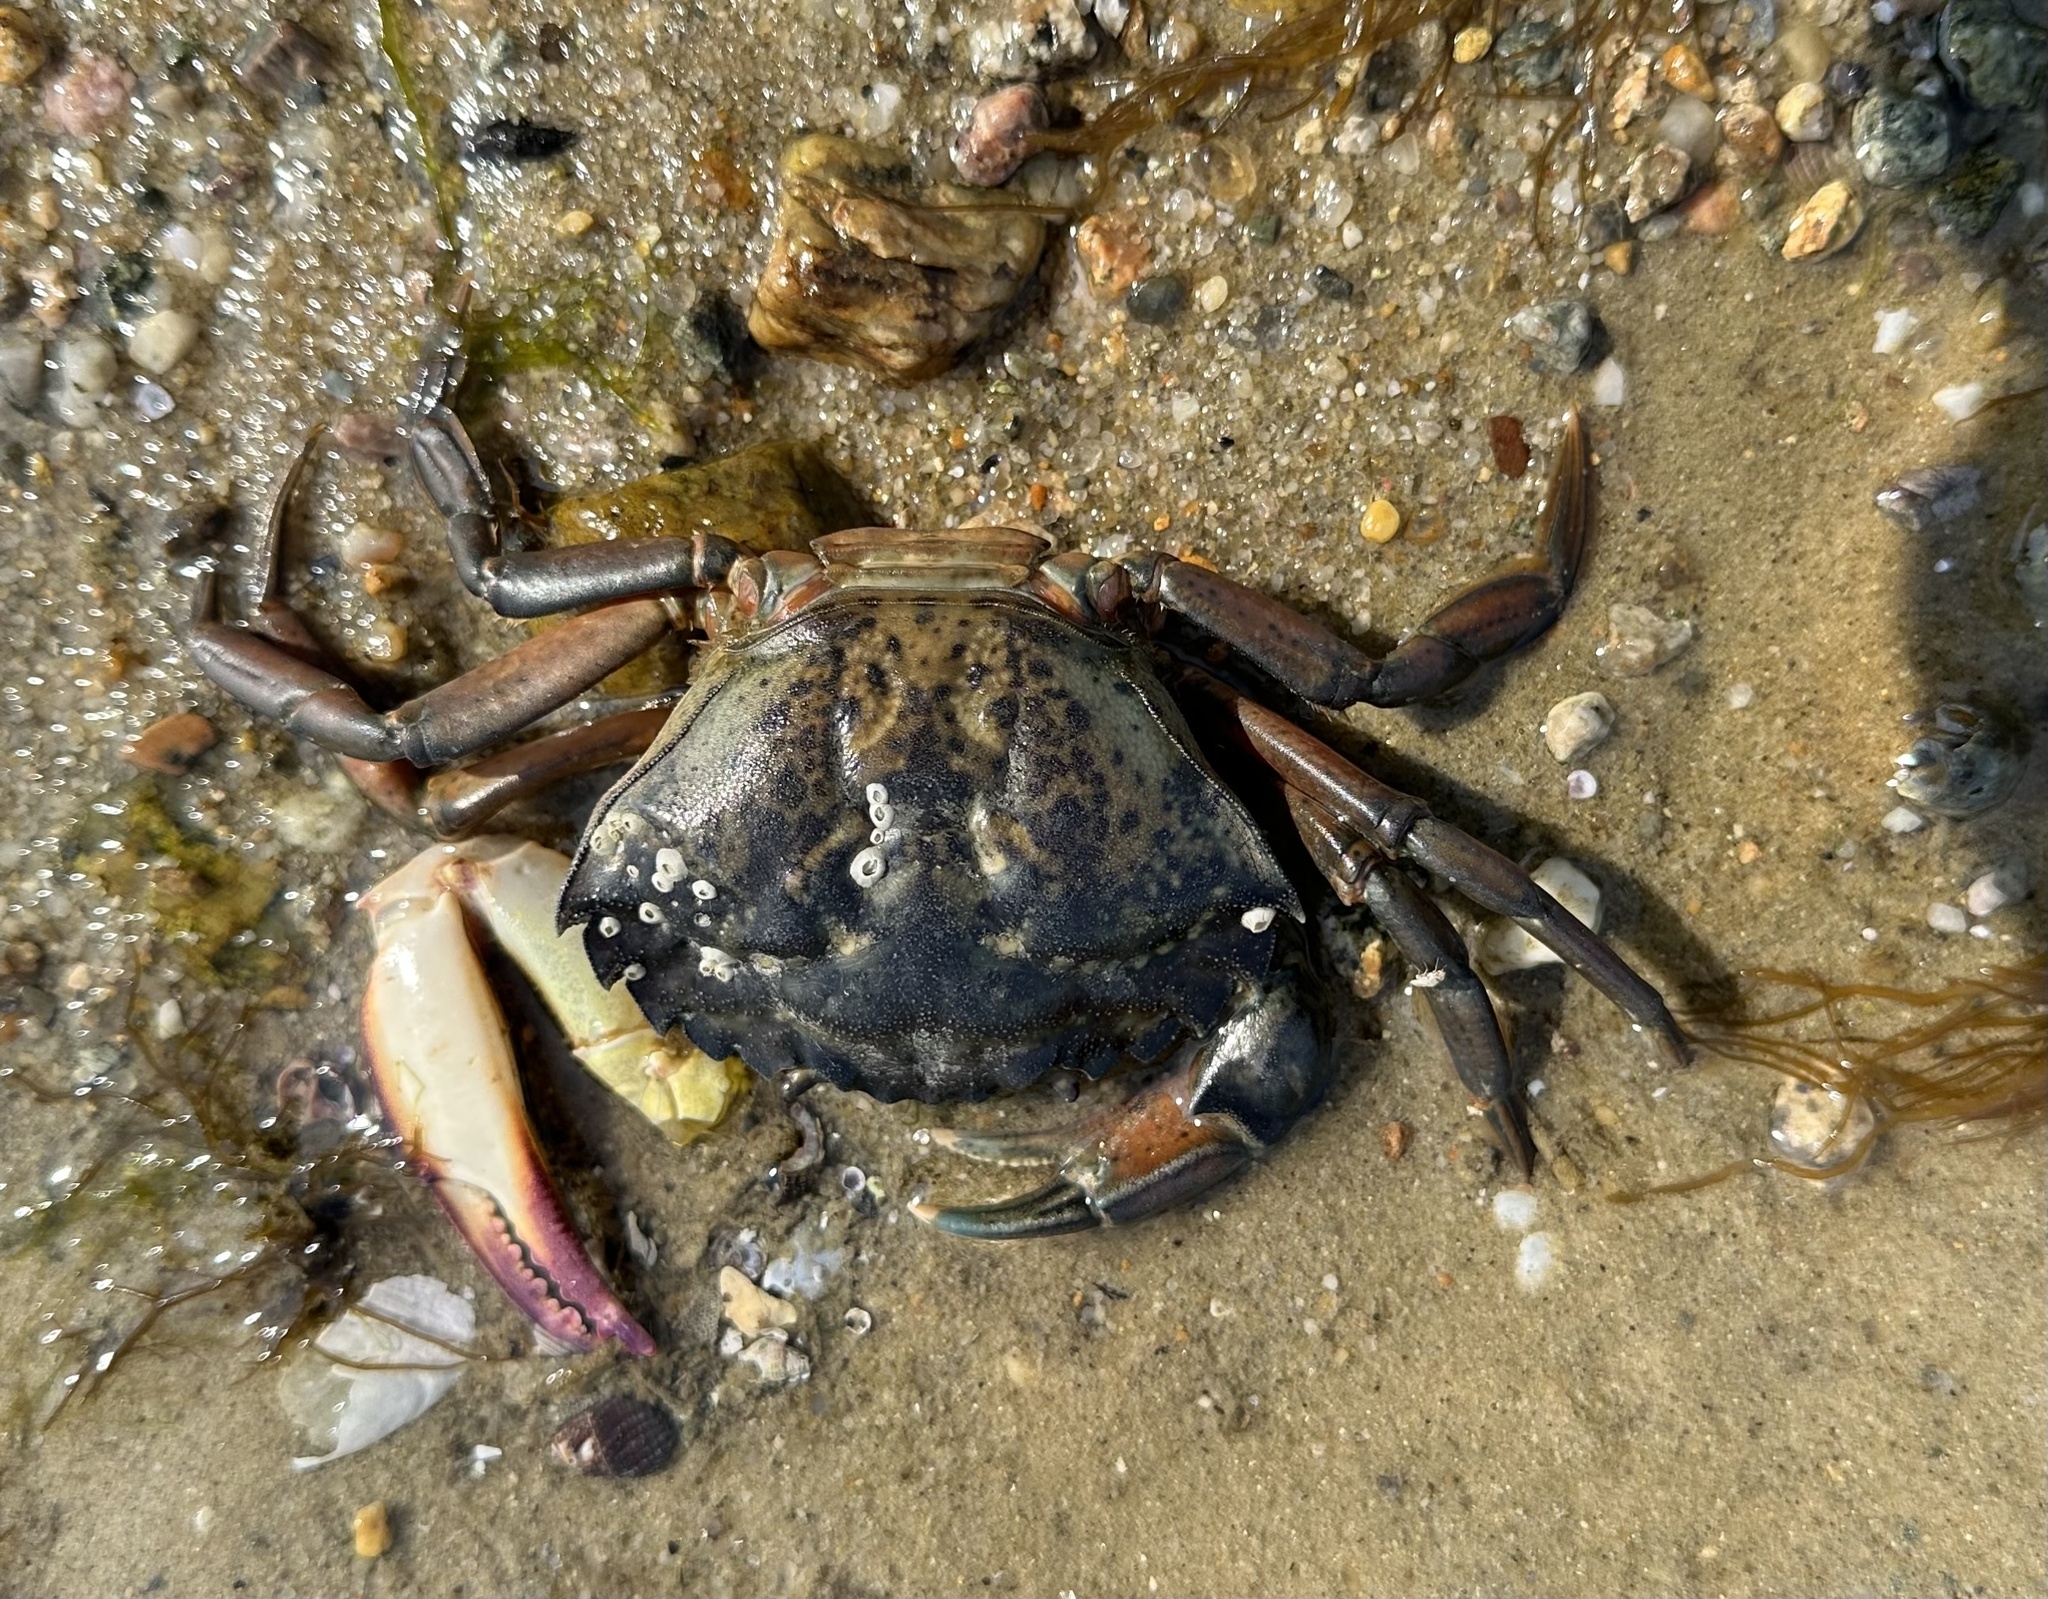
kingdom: Animalia
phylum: Arthropoda
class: Malacostraca
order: Decapoda
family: Carcinidae
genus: Carcinus
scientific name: Carcinus maenas
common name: European green crab
